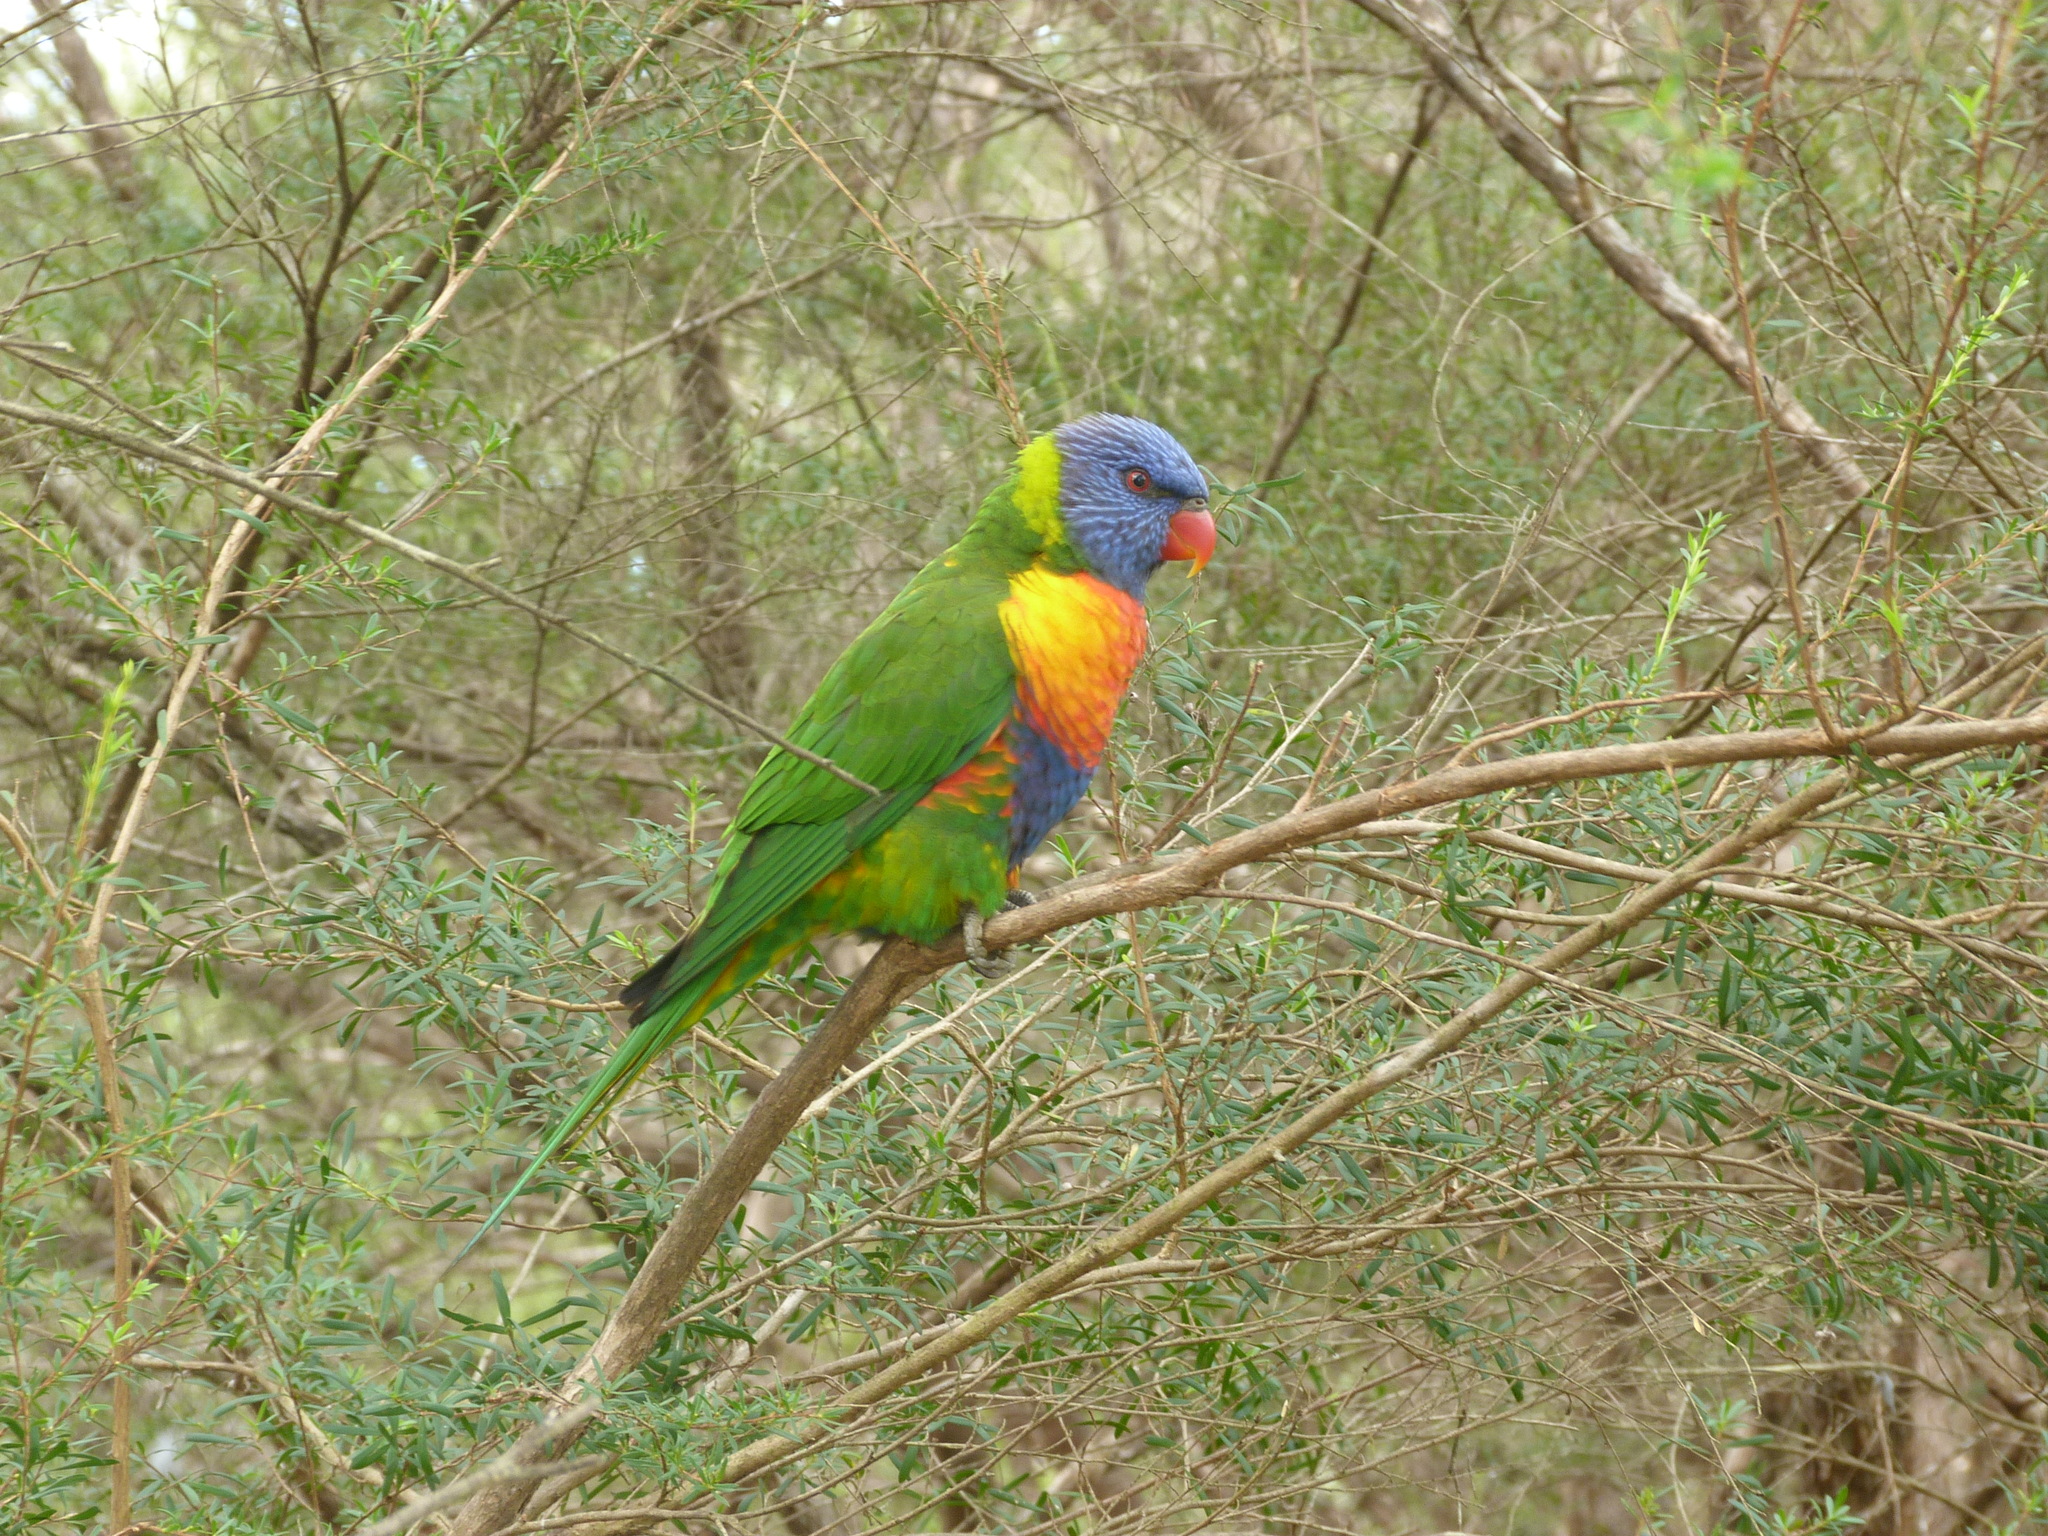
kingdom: Animalia
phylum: Chordata
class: Aves
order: Psittaciformes
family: Psittacidae
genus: Trichoglossus
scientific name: Trichoglossus haematodus
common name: Coconut lorikeet
